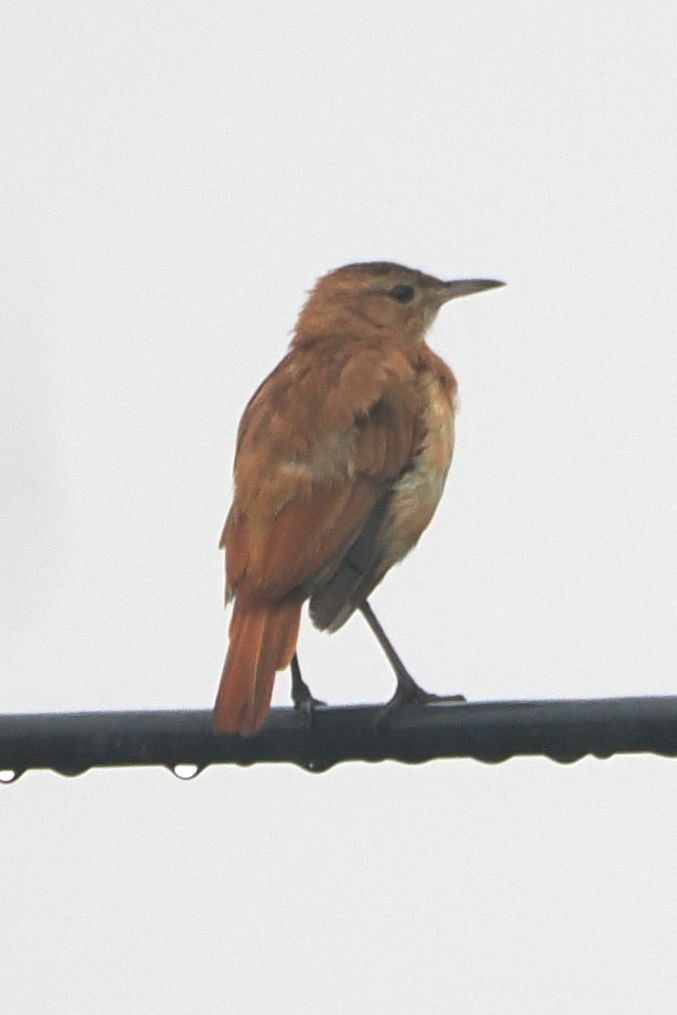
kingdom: Animalia
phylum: Chordata
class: Aves
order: Passeriformes
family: Furnariidae
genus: Furnarius
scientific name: Furnarius rufus
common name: Rufous hornero
